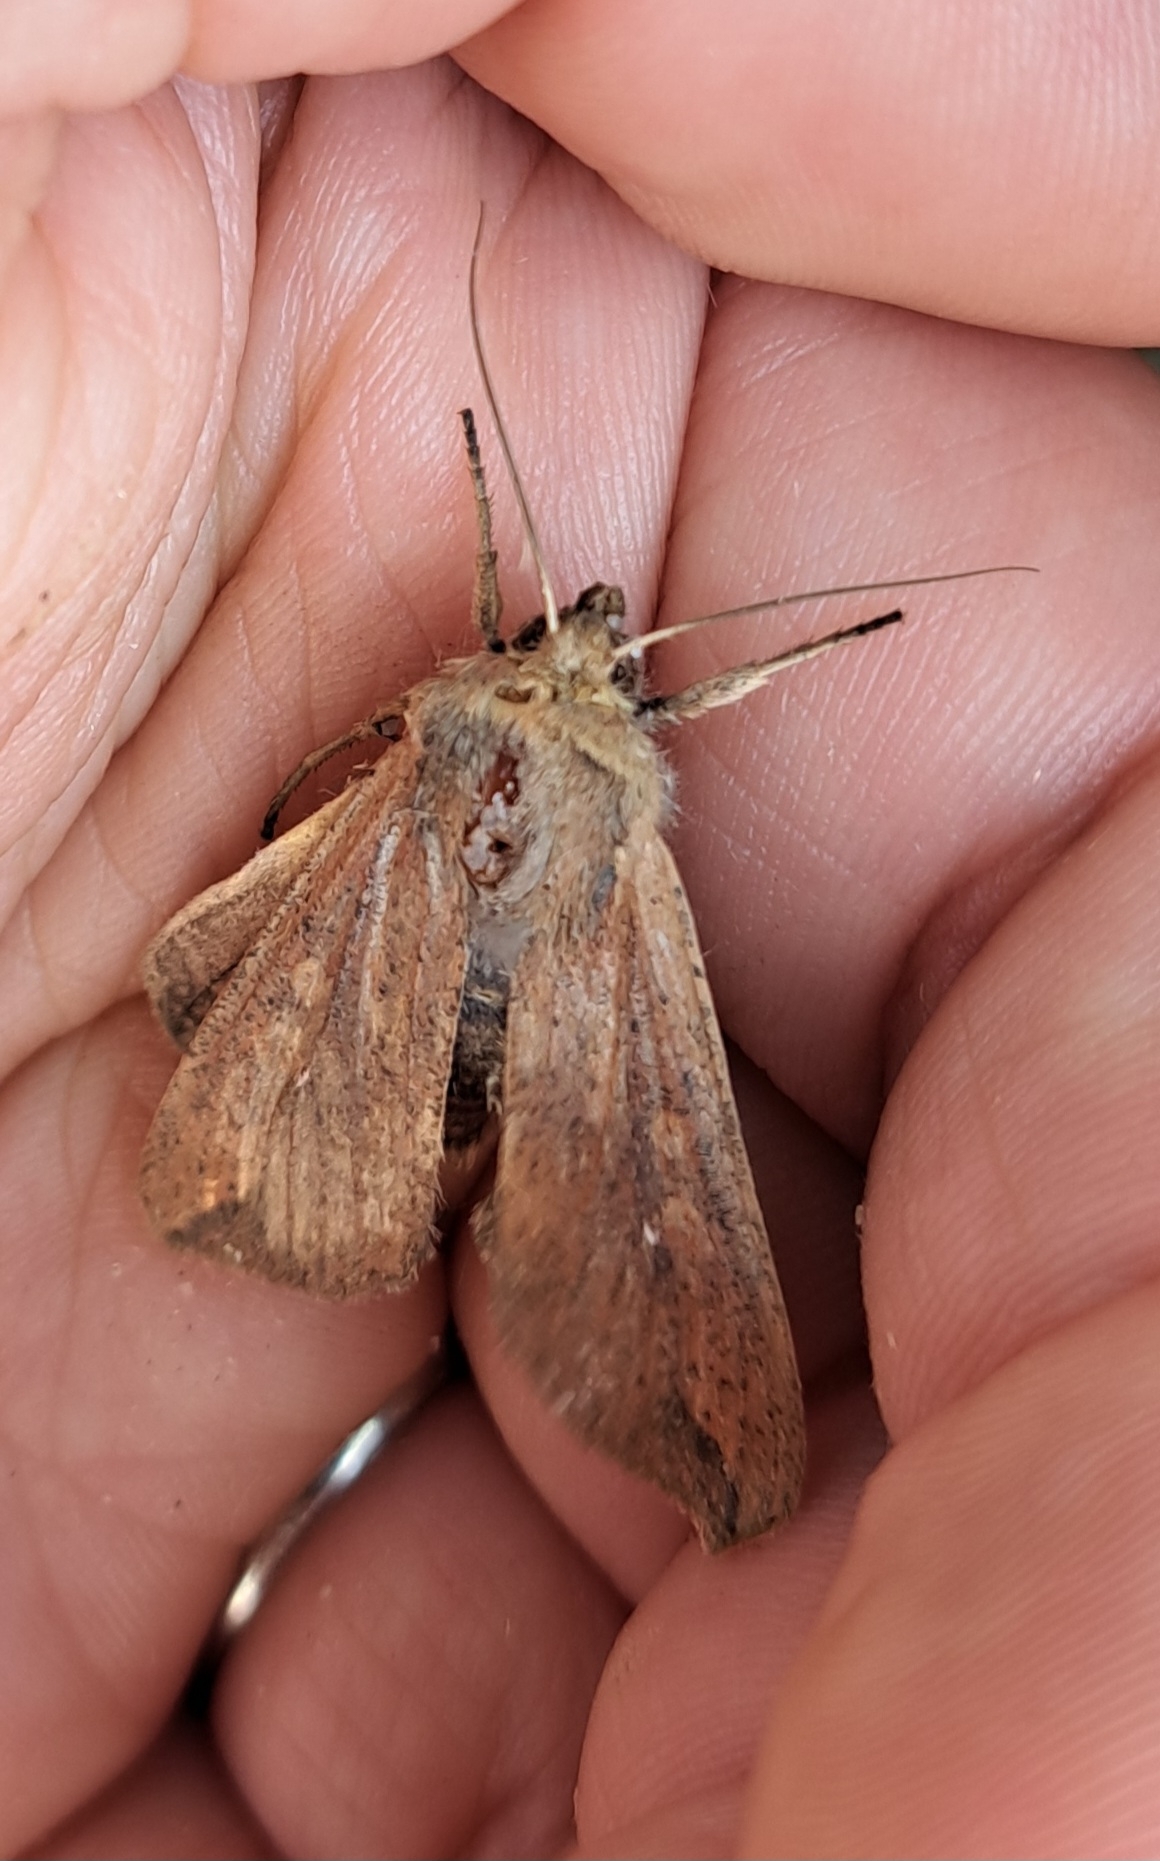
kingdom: Animalia
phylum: Arthropoda
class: Insecta
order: Lepidoptera
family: Noctuidae
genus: Mythimna
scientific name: Mythimna unipuncta
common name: White-speck
